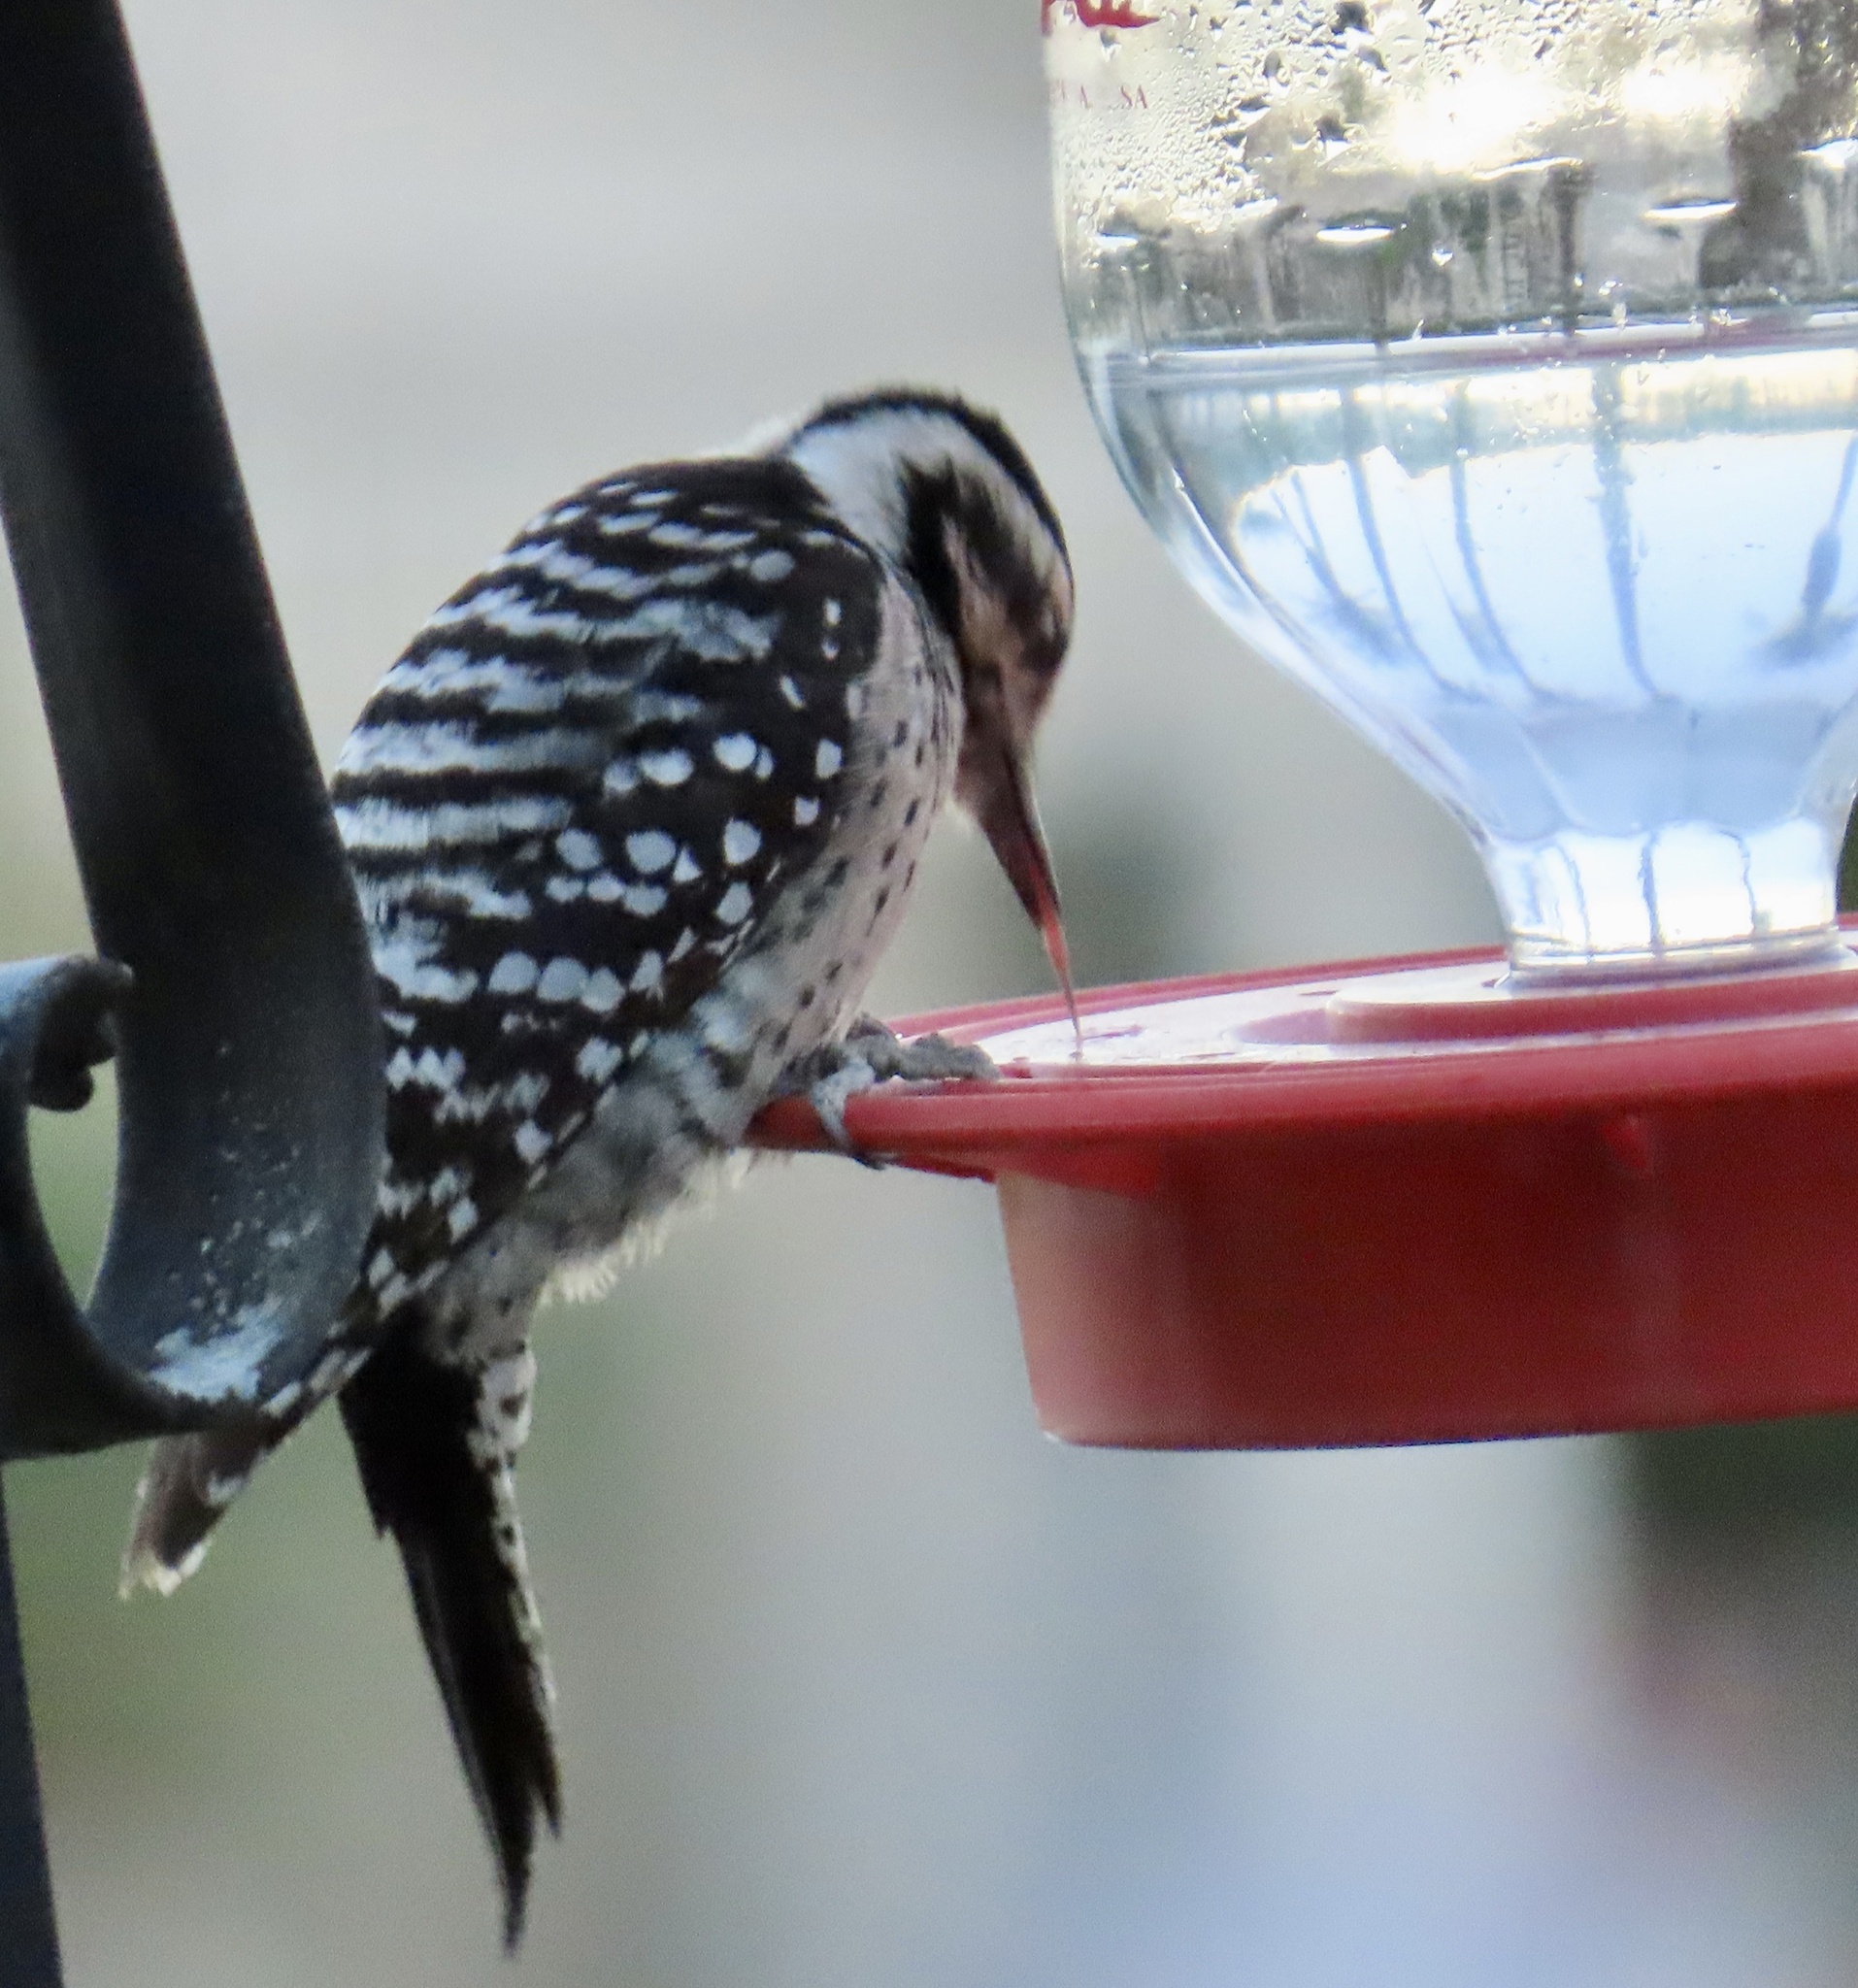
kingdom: Animalia
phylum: Chordata
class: Aves
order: Piciformes
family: Picidae
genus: Dryobates
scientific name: Dryobates scalaris
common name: Ladder-backed woodpecker
